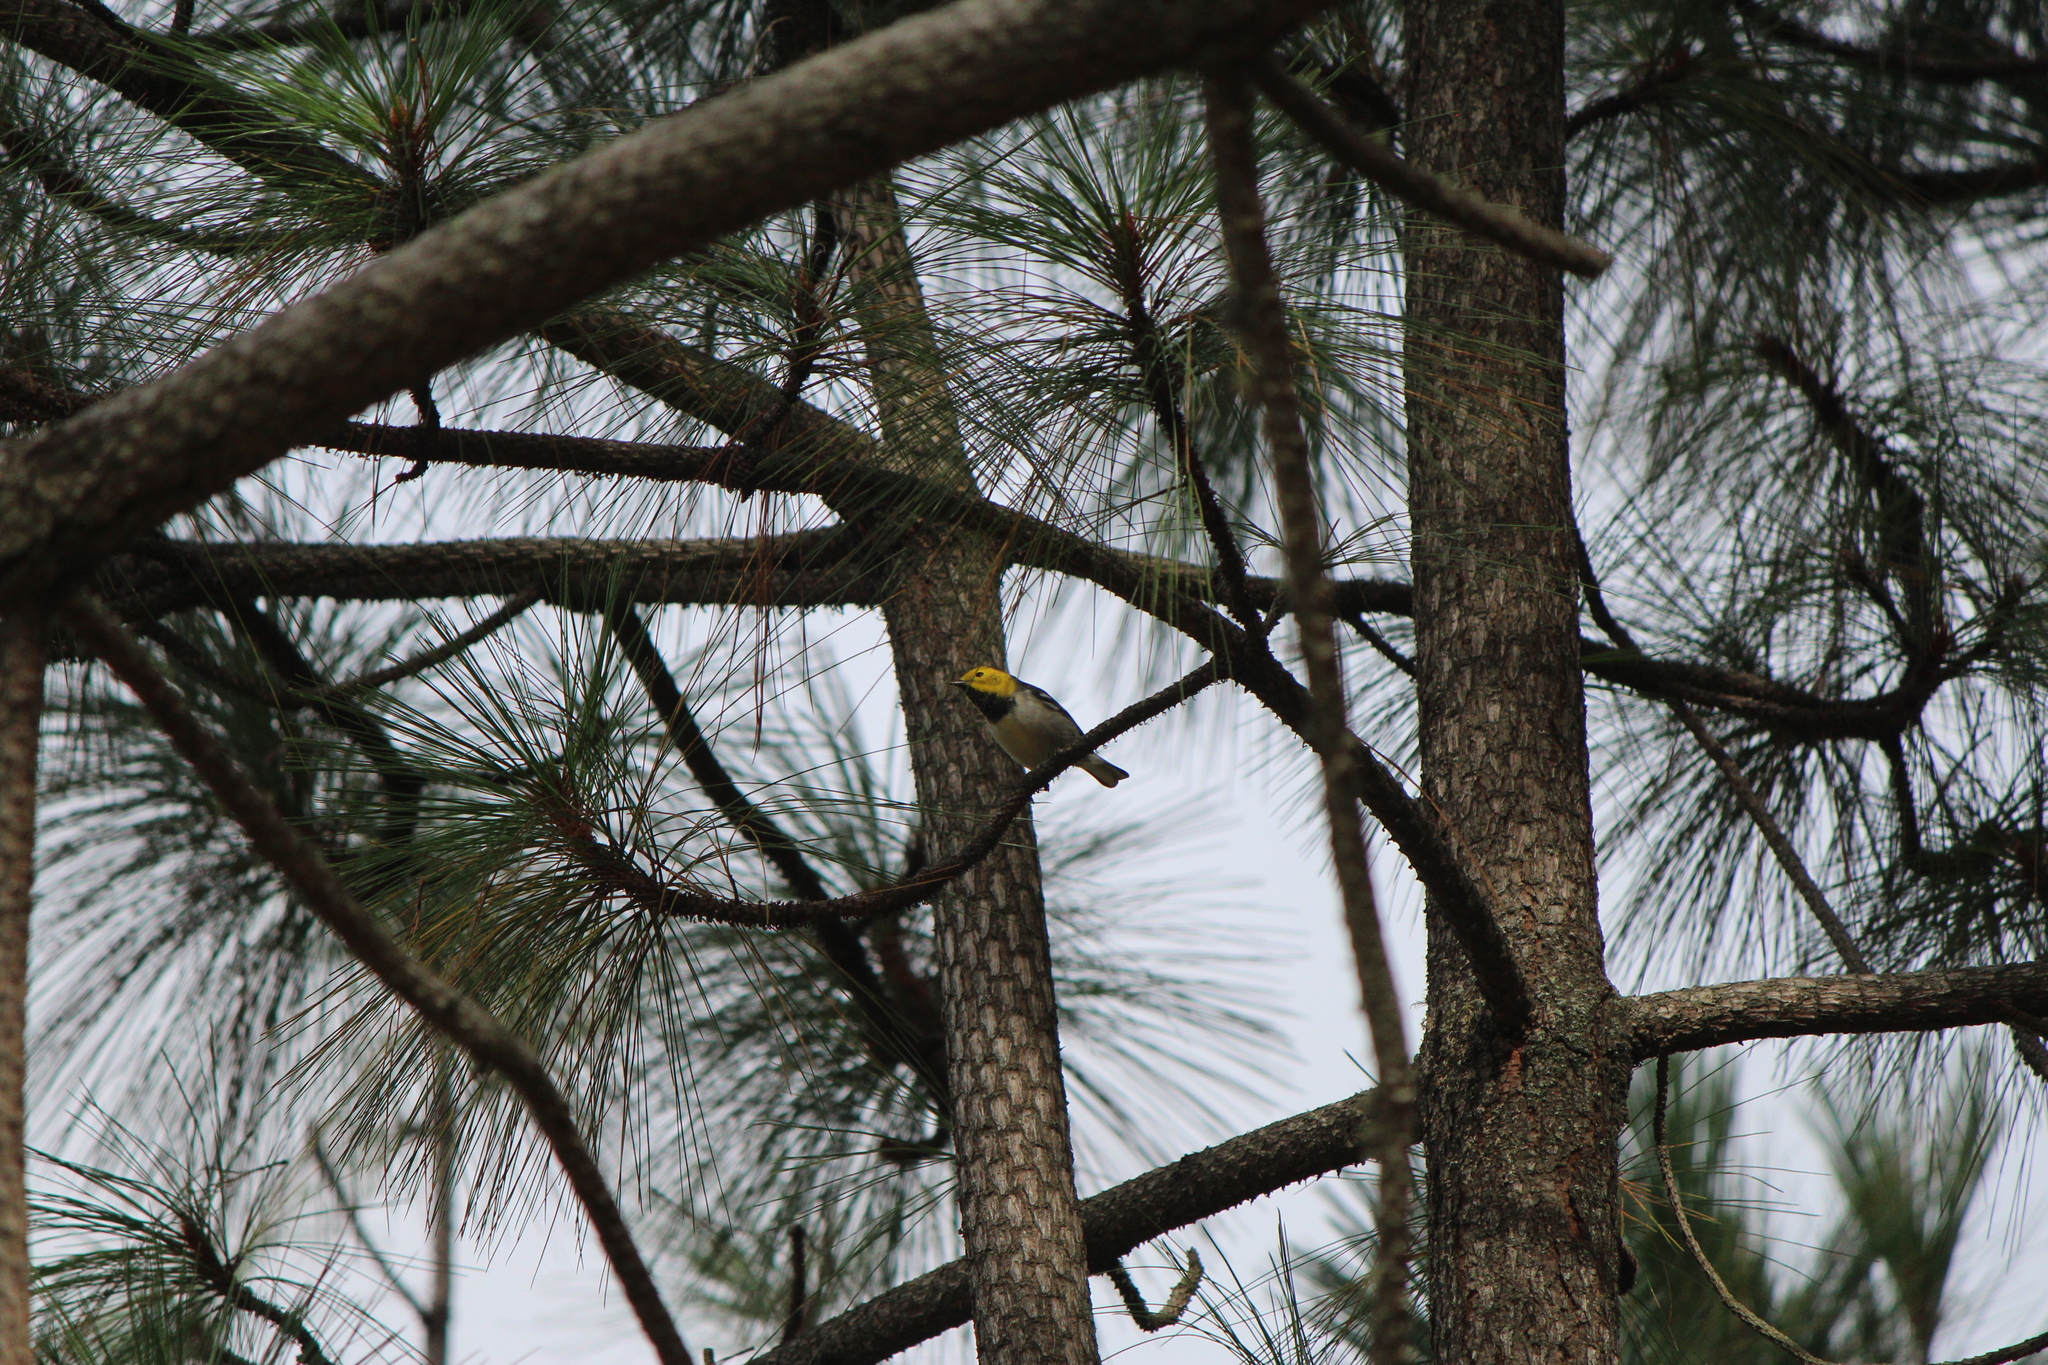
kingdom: Animalia
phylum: Chordata
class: Aves
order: Passeriformes
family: Parulidae
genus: Setophaga
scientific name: Setophaga occidentalis
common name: Hermit warbler
